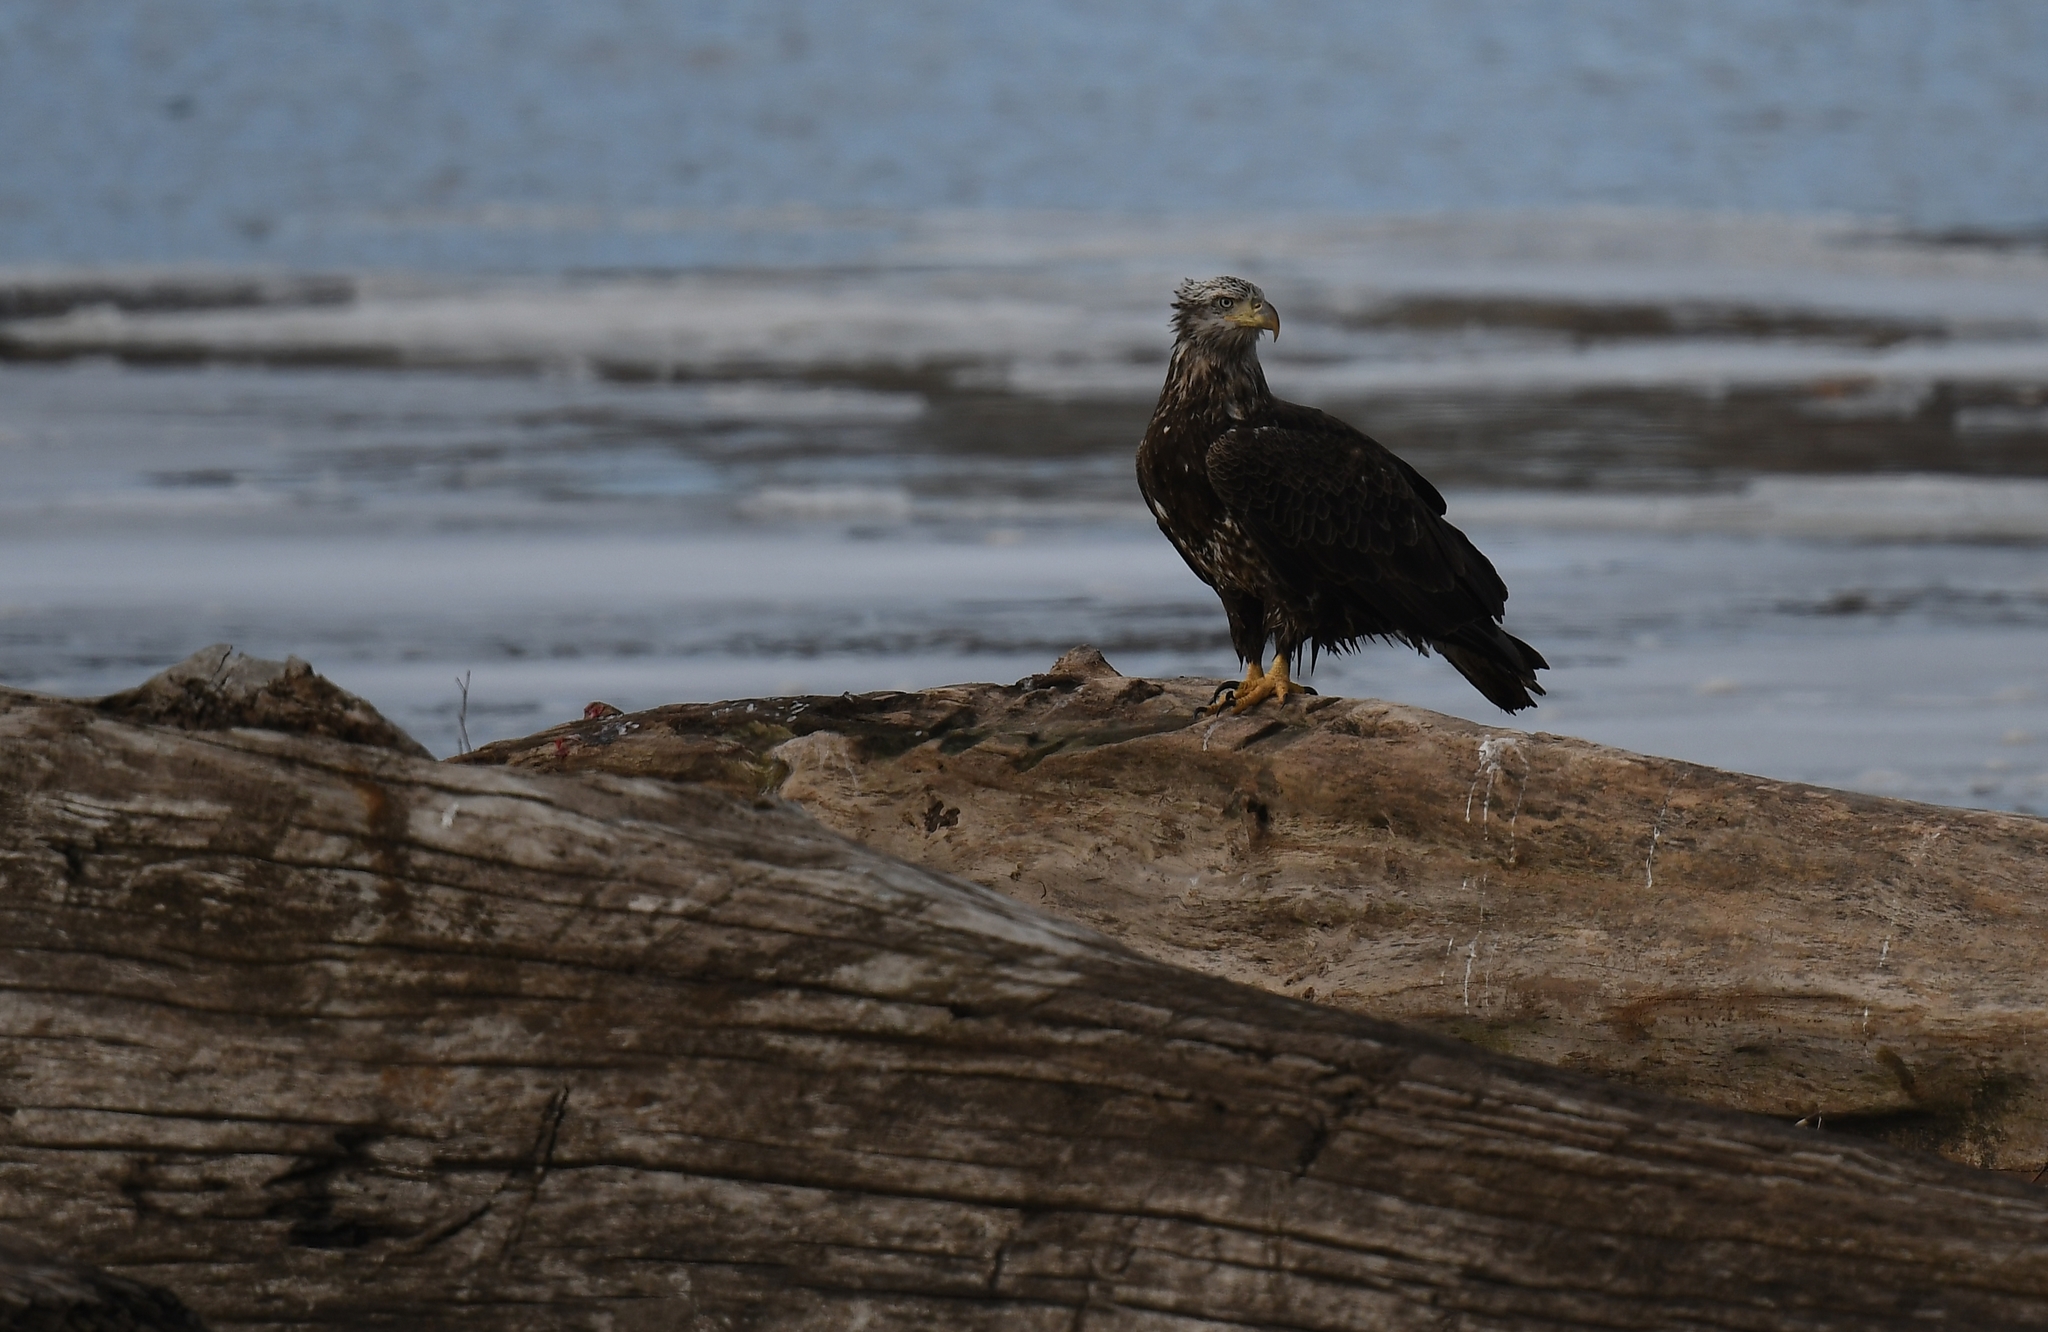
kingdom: Animalia
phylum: Chordata
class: Aves
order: Accipitriformes
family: Accipitridae
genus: Haliaeetus
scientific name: Haliaeetus leucocephalus
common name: Bald eagle
